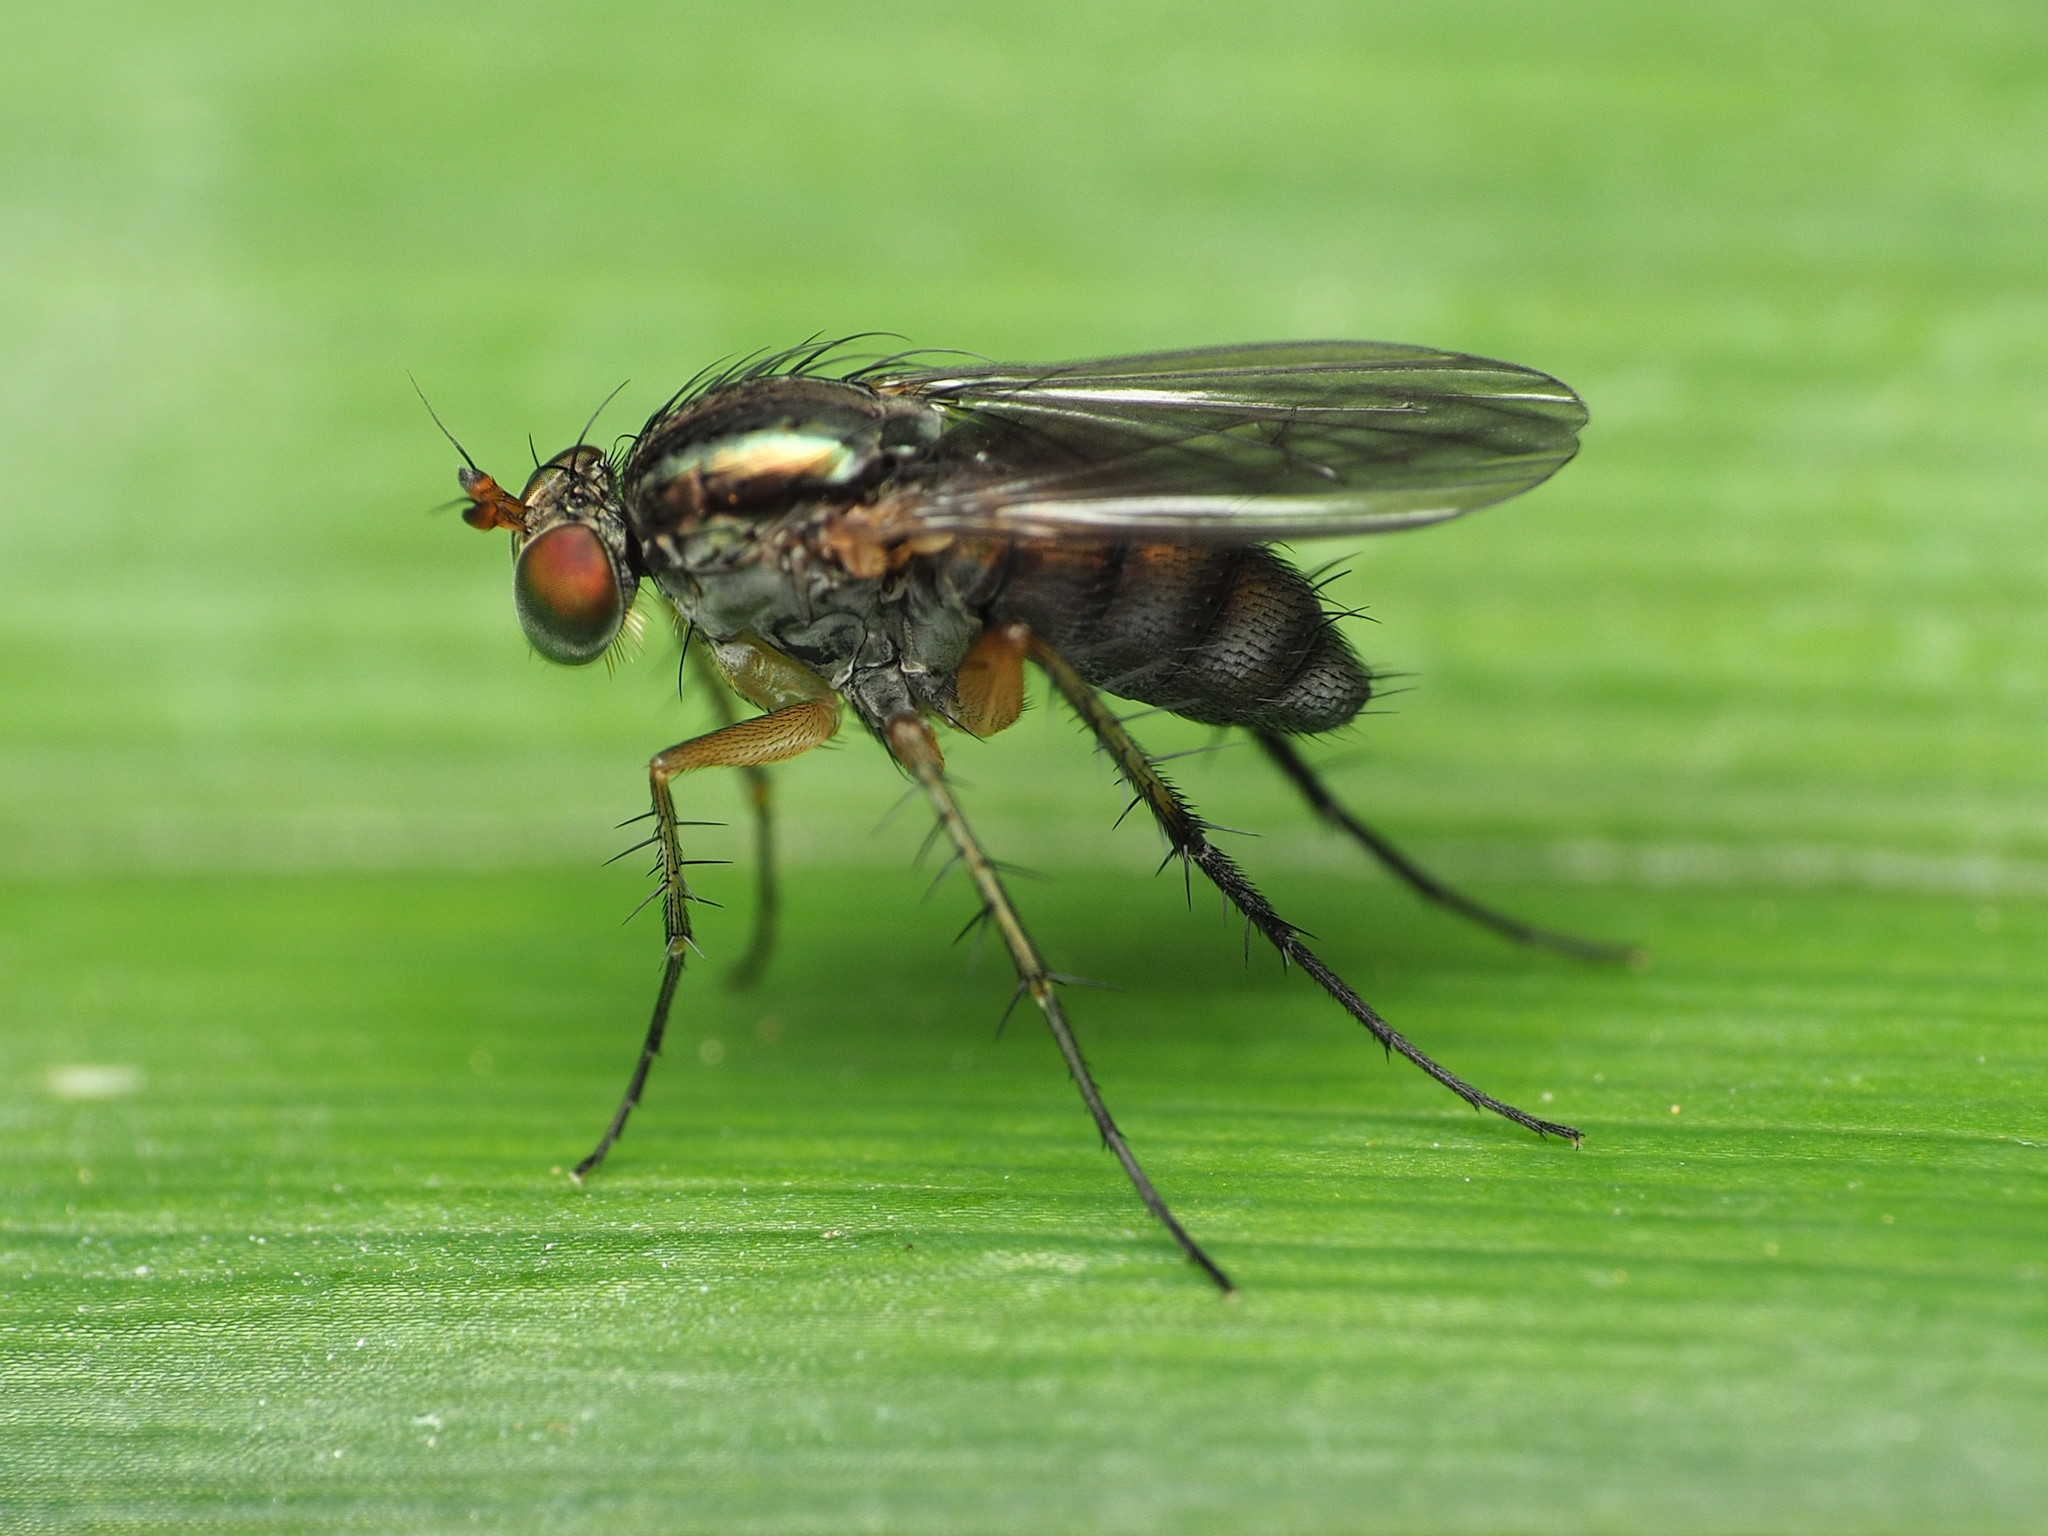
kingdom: Animalia
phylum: Arthropoda
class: Insecta
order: Diptera
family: Dolichopodidae
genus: Dolichopus
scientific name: Dolichopus bifractus
